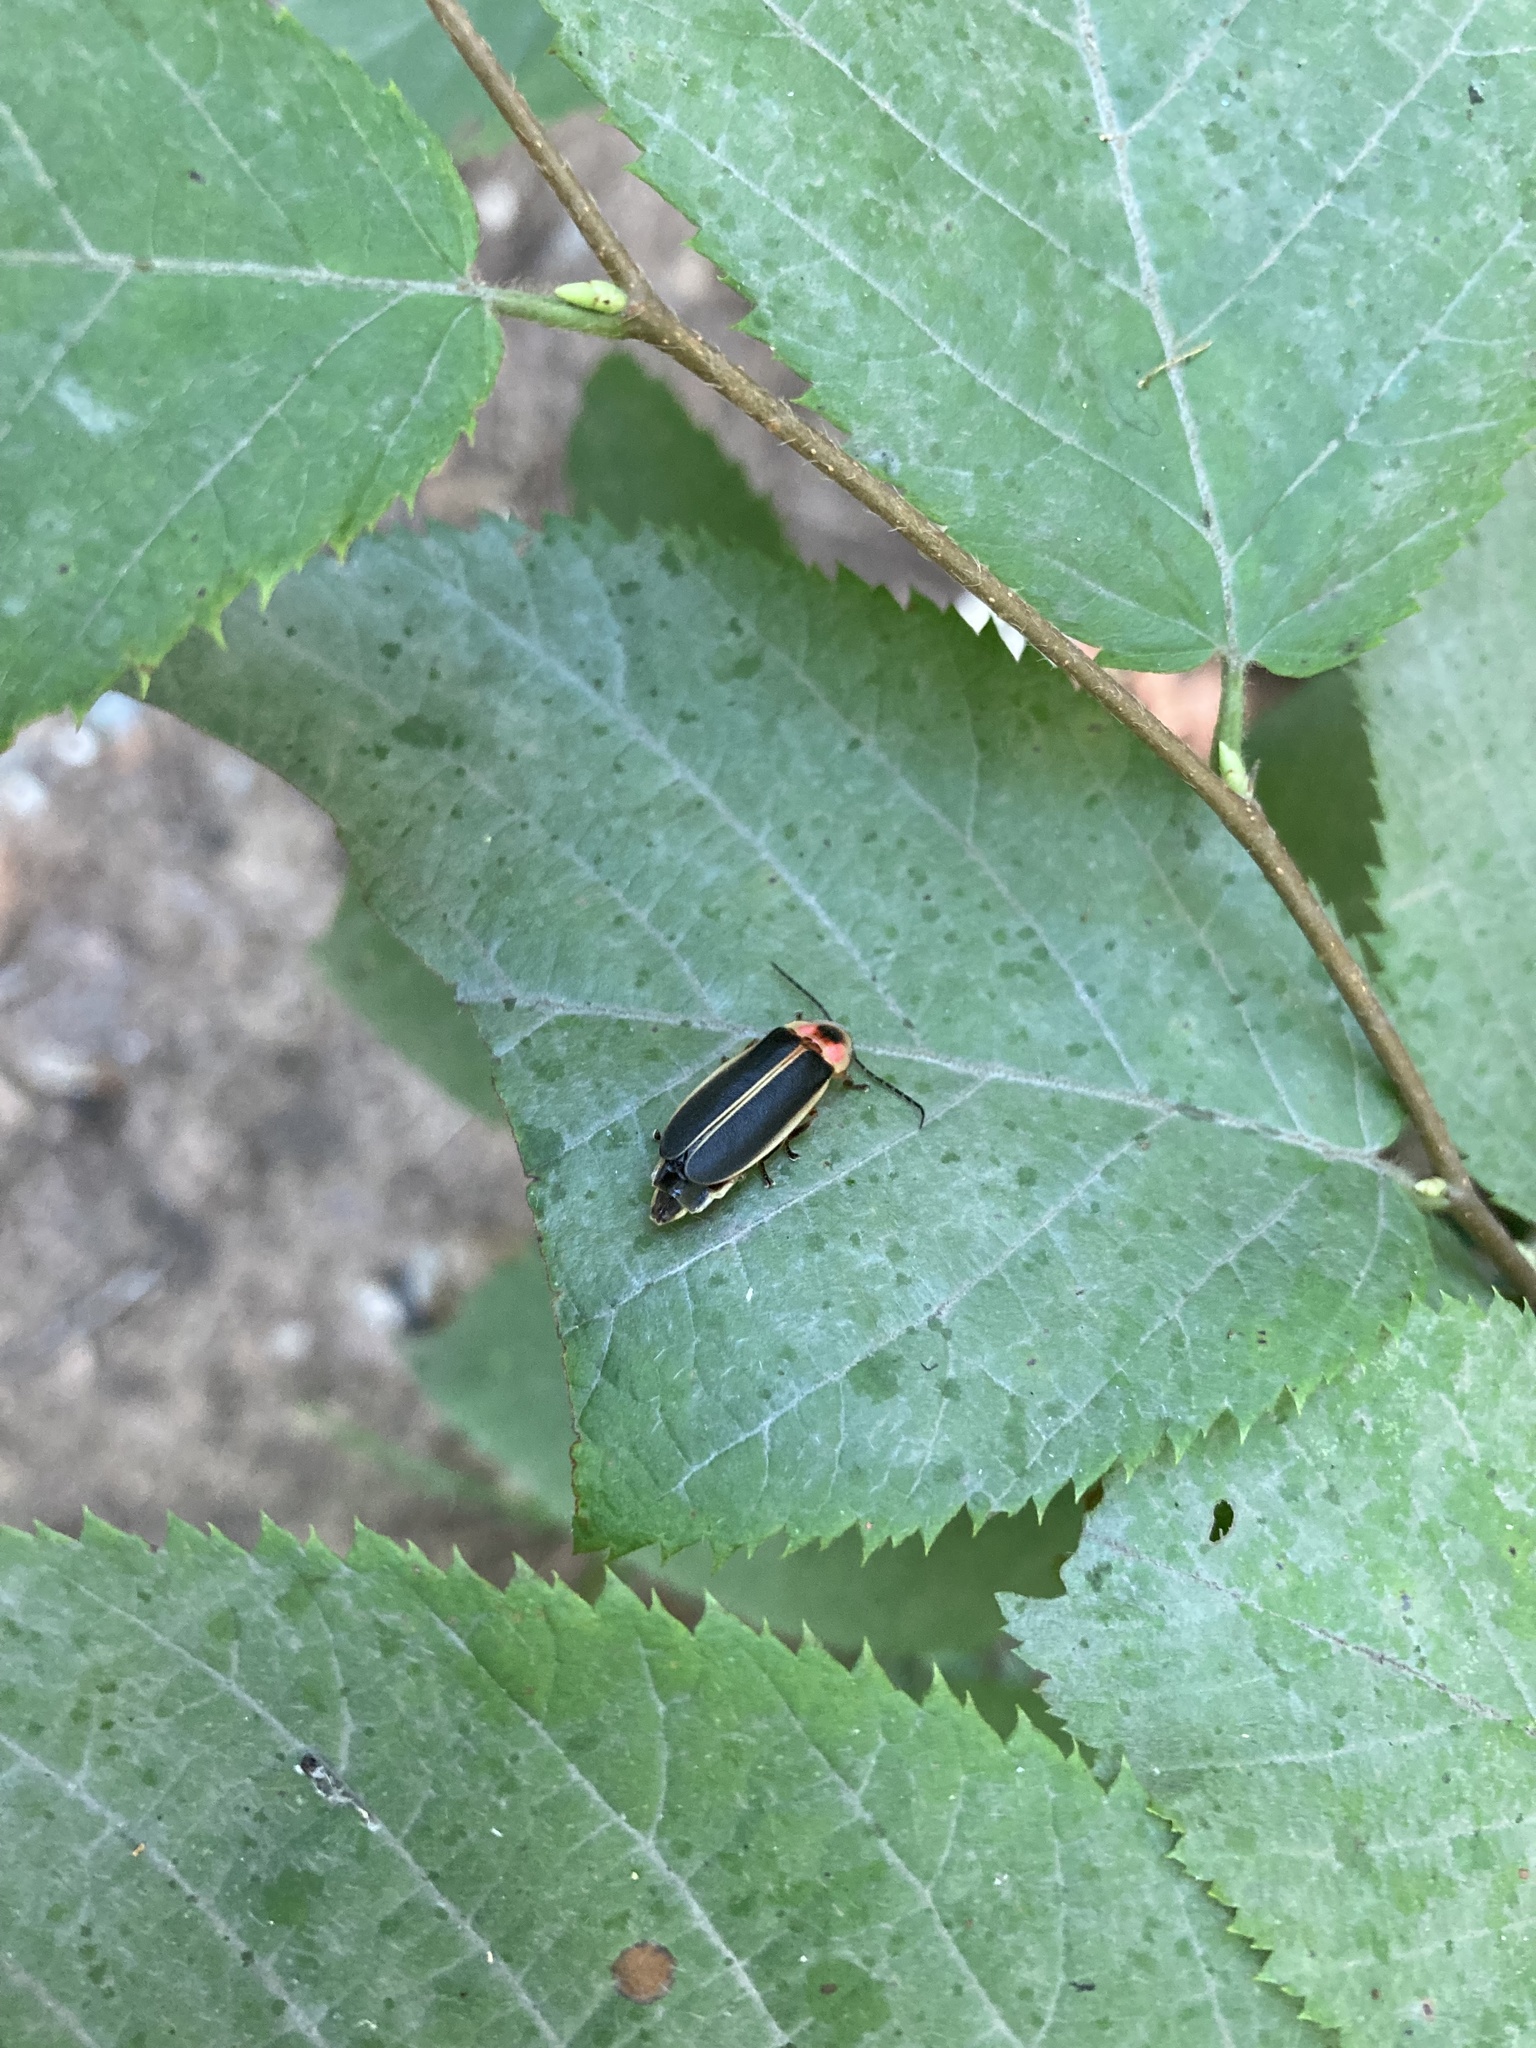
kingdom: Animalia
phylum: Arthropoda
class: Insecta
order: Coleoptera
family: Lampyridae
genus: Photinus
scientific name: Photinus pyralis
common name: Big dipper firefly
